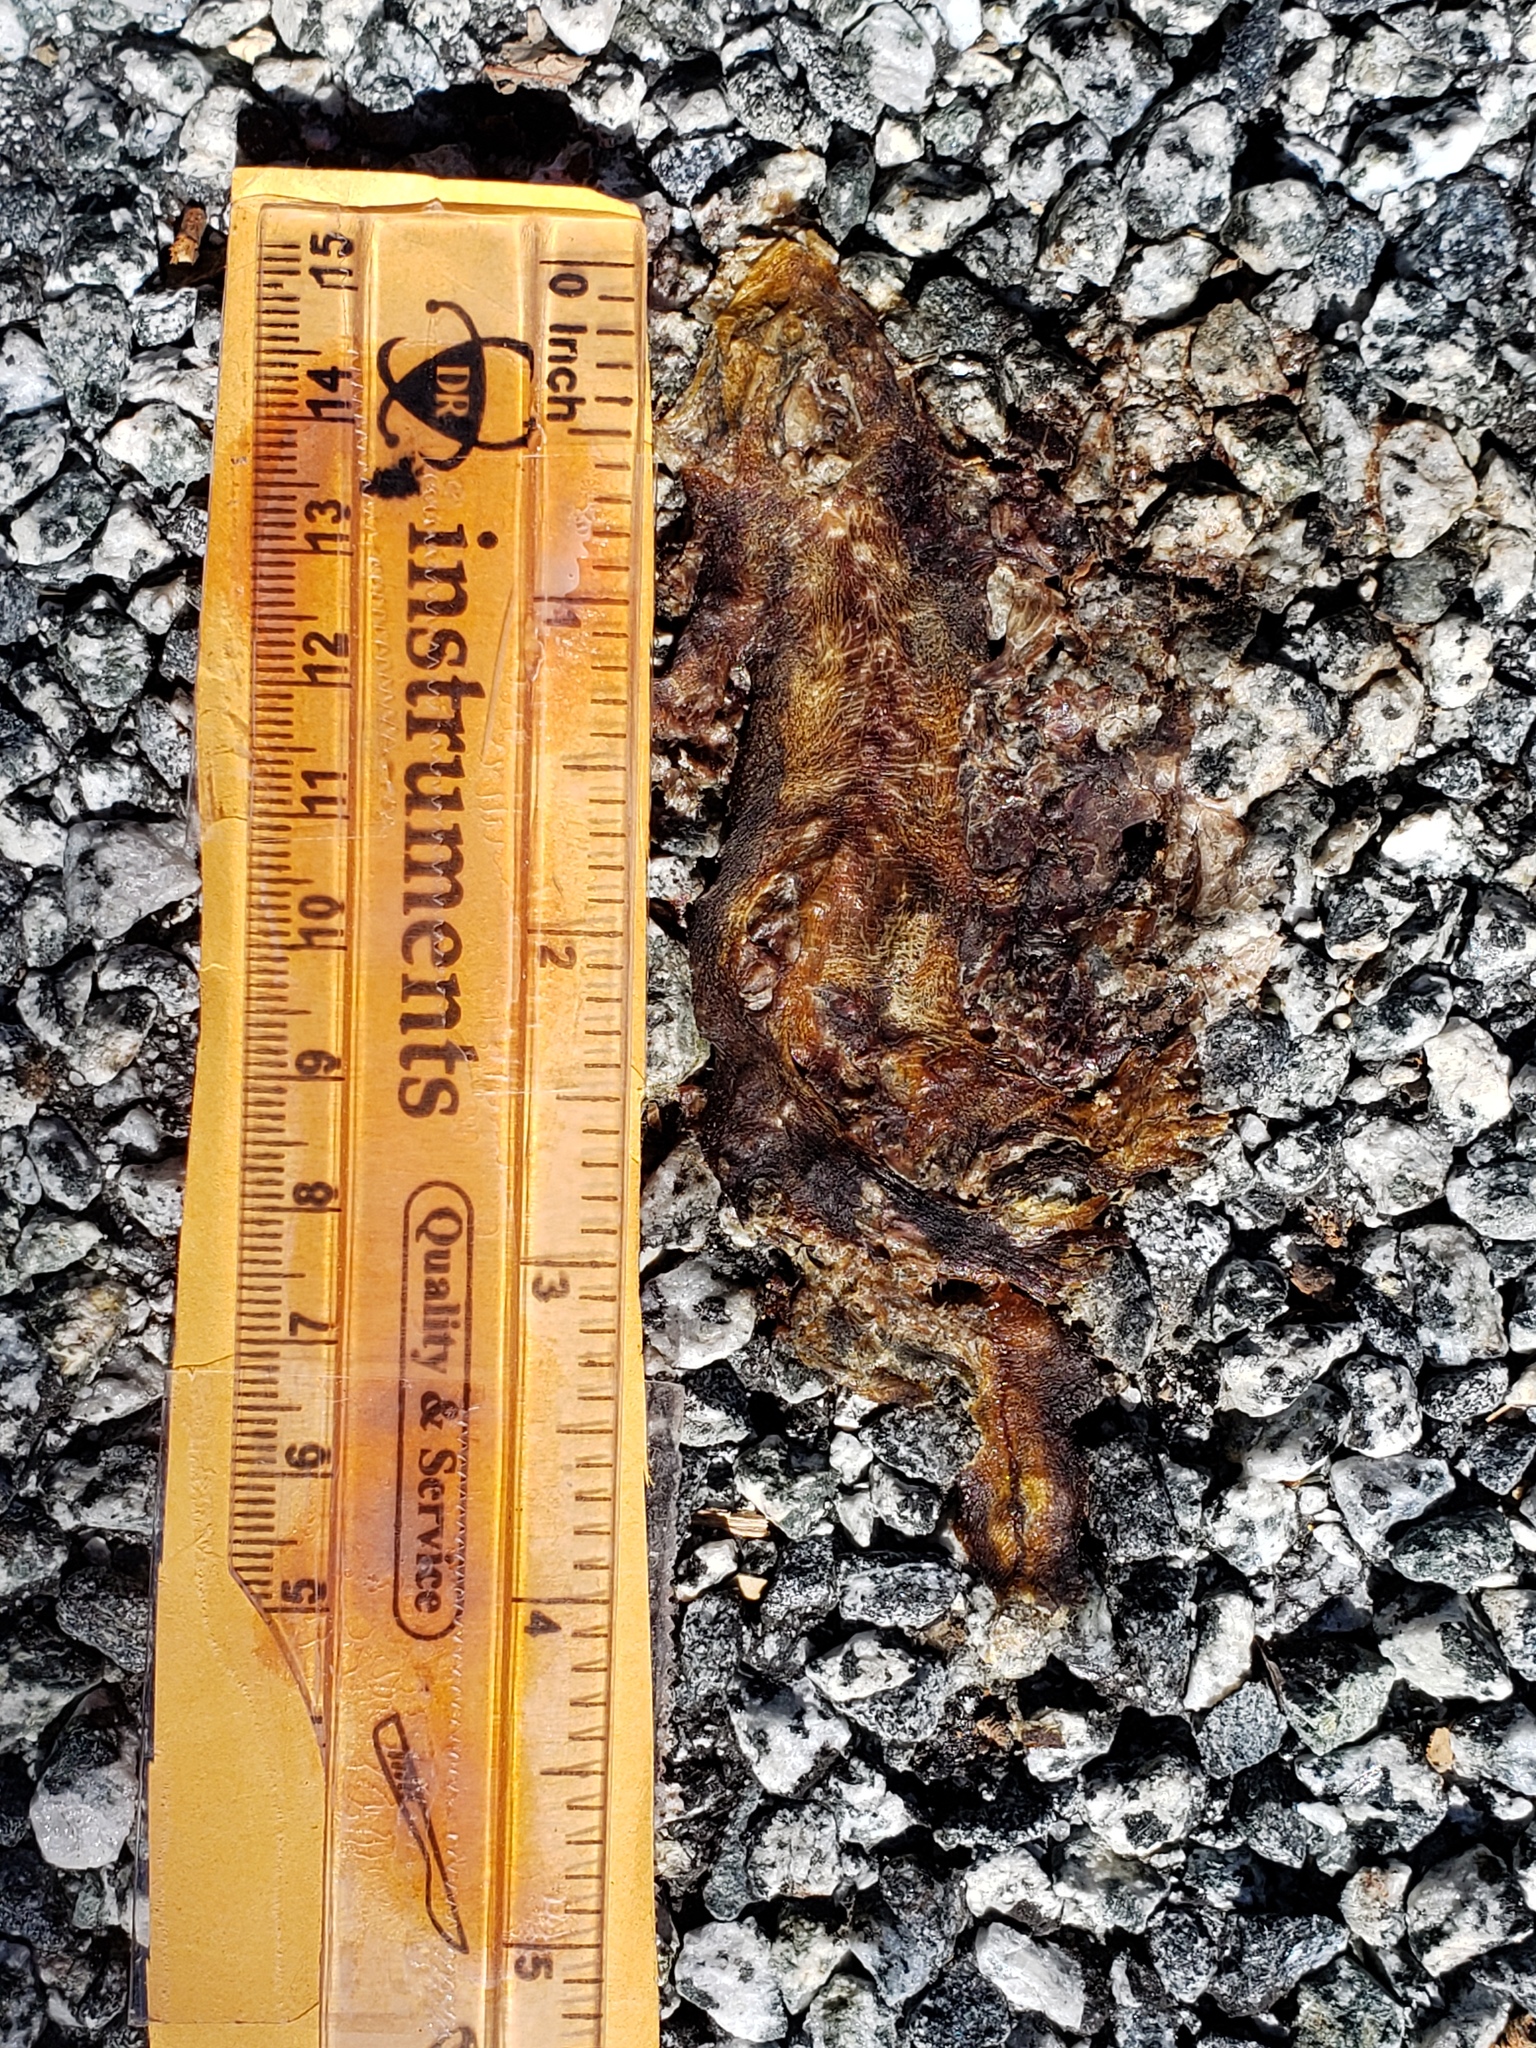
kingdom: Animalia
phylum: Chordata
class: Amphibia
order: Caudata
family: Salamandridae
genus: Taricha
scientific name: Taricha
